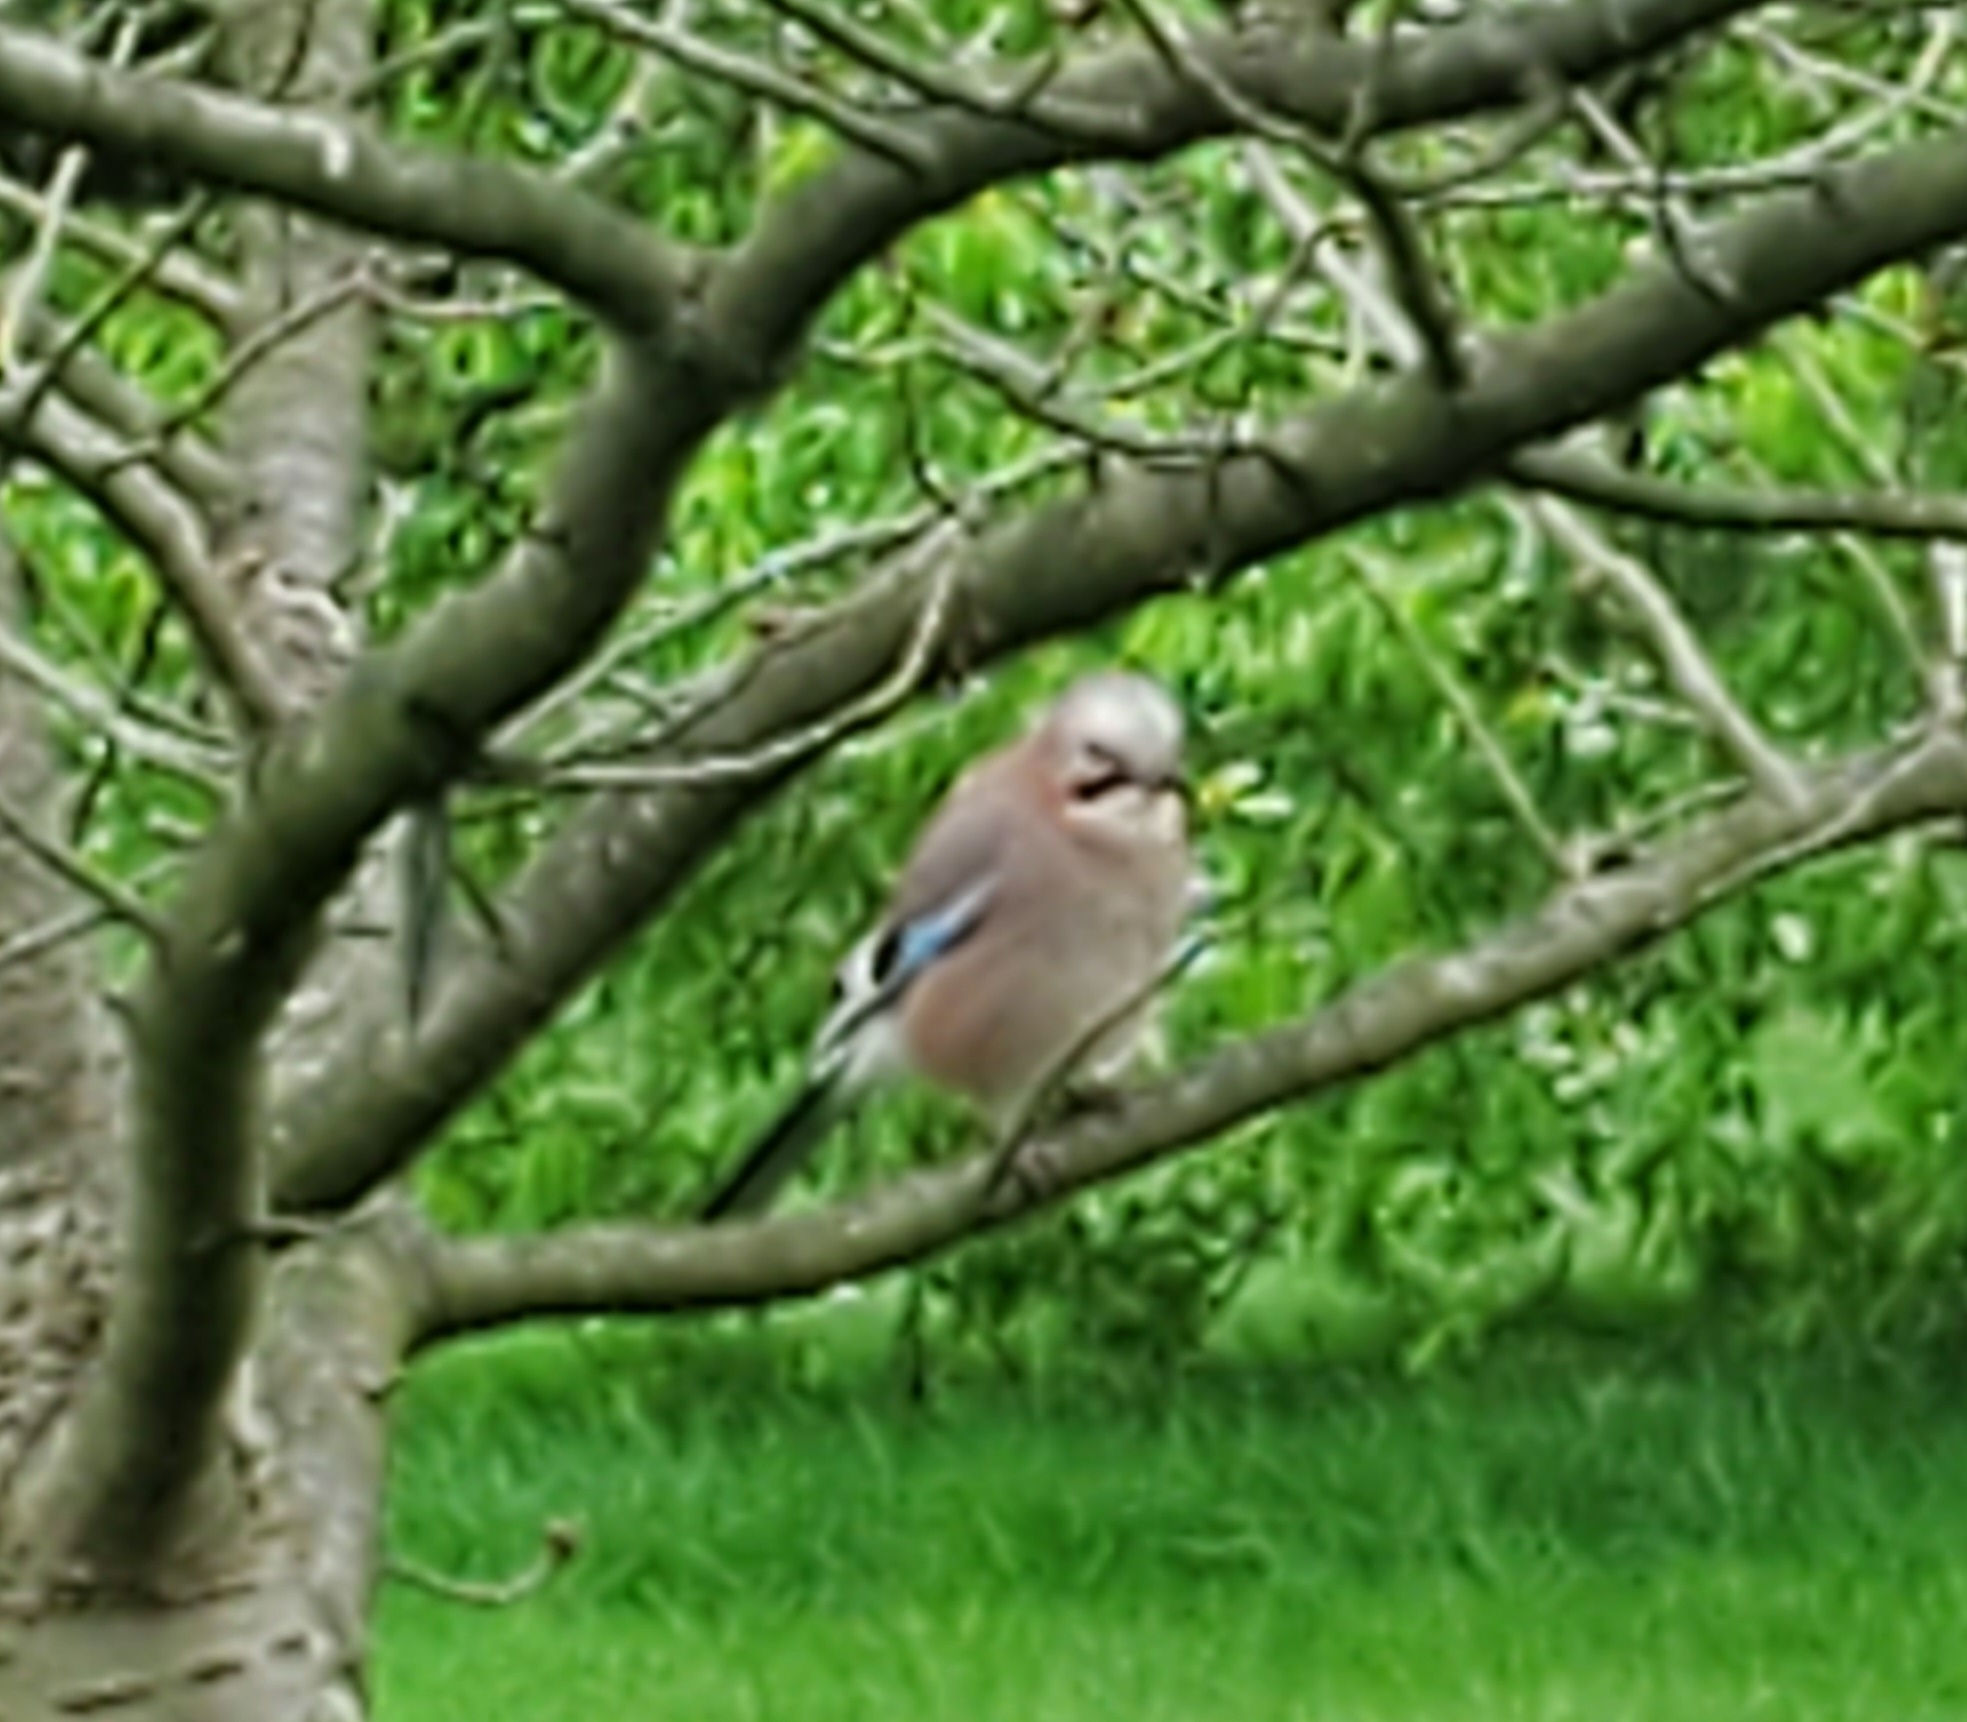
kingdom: Animalia
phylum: Chordata
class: Aves
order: Passeriformes
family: Corvidae
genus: Garrulus
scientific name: Garrulus glandarius
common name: Eurasian jay
